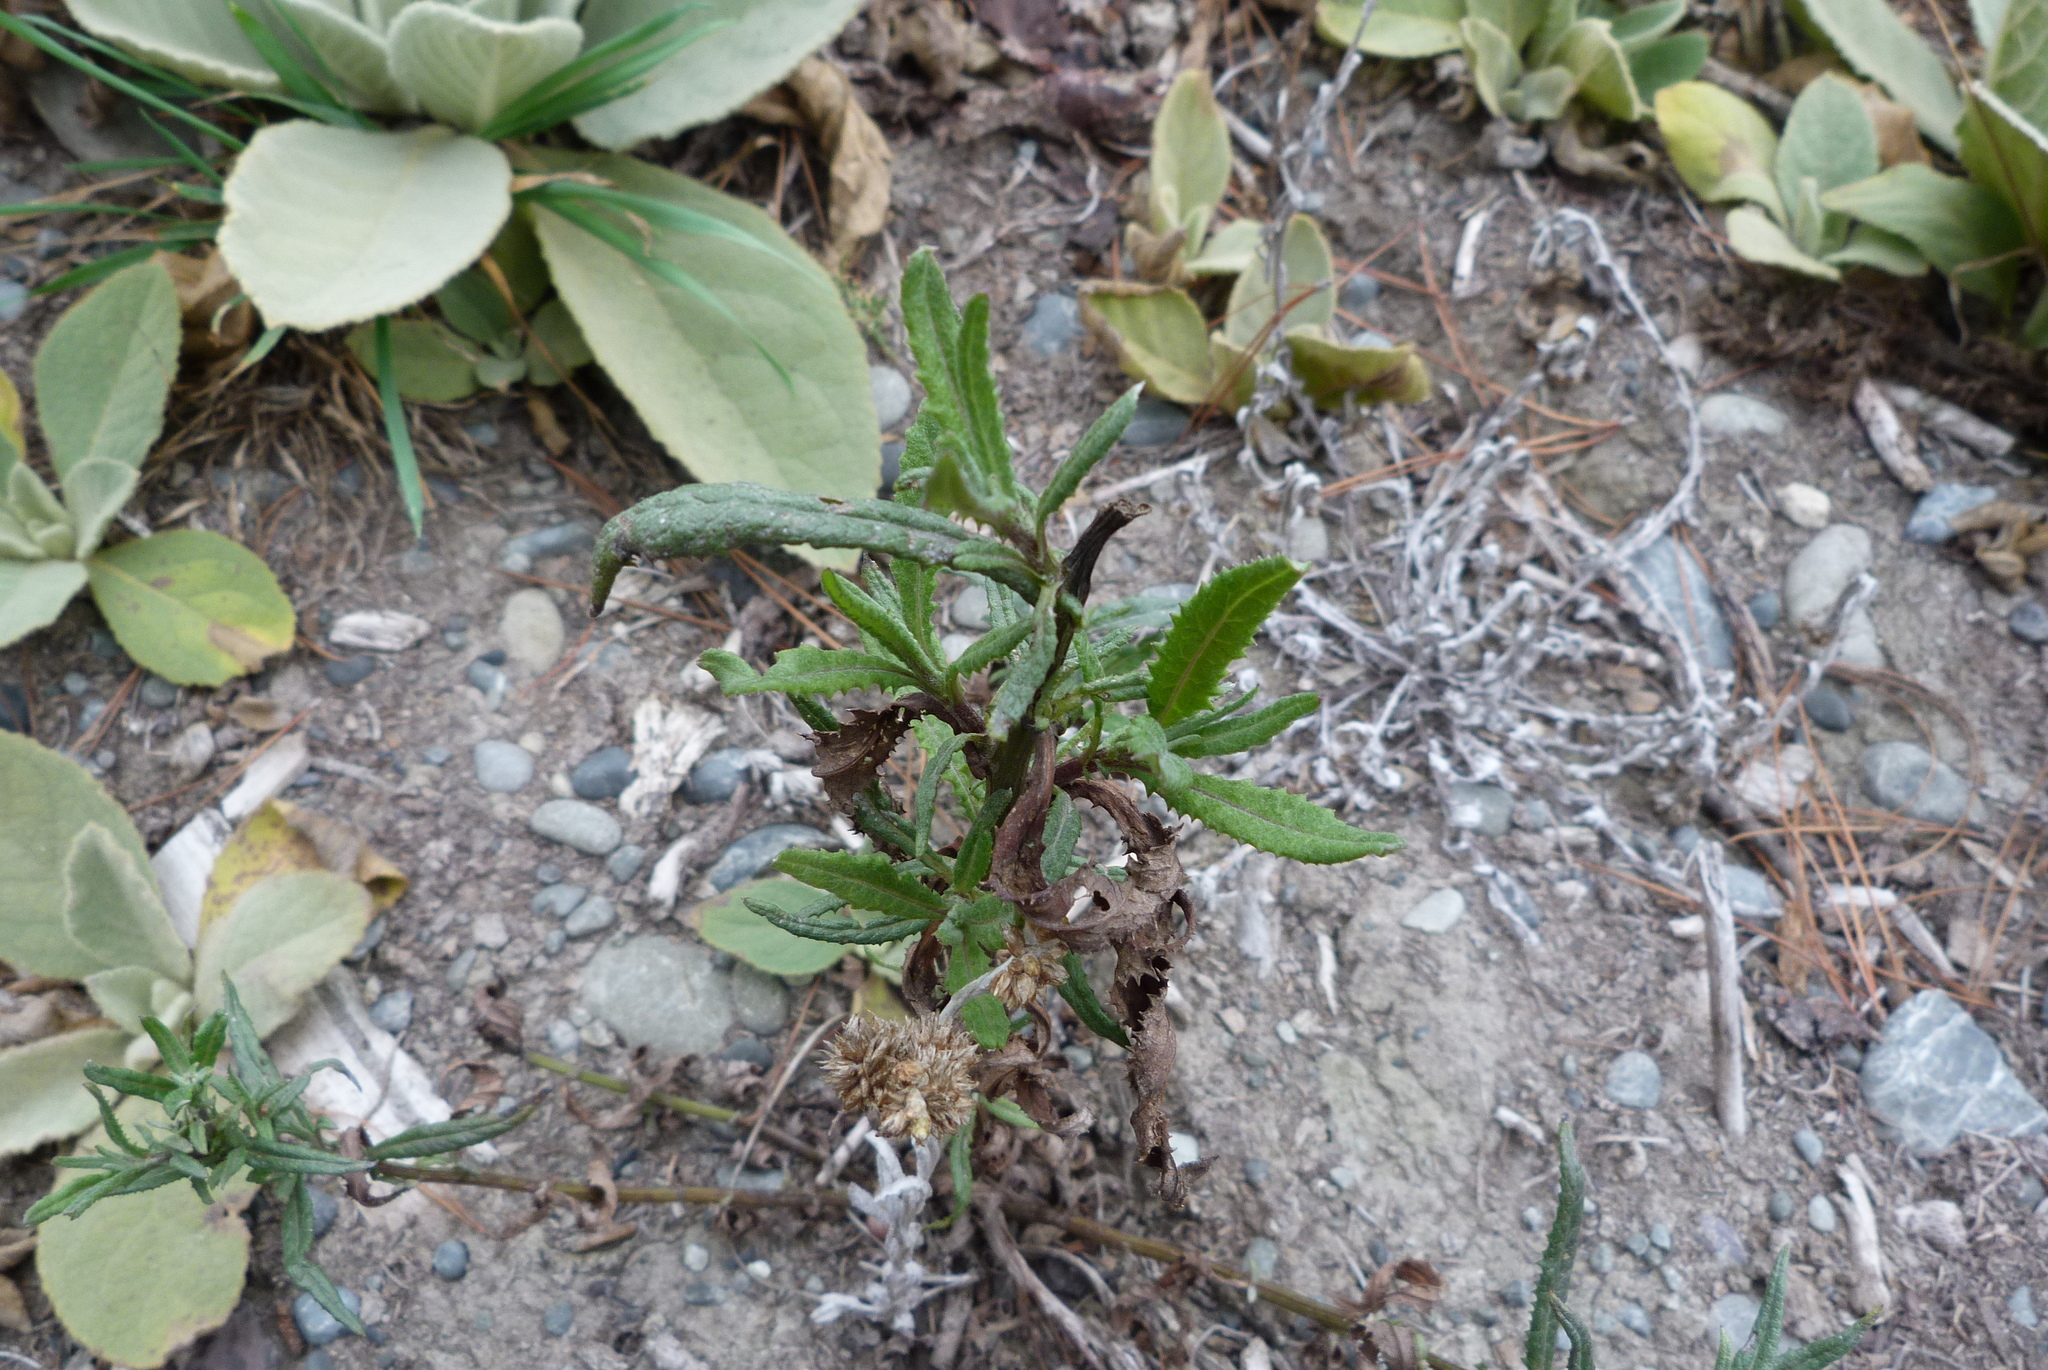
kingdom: Plantae
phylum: Tracheophyta
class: Magnoliopsida
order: Asterales
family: Asteraceae
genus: Senecio
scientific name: Senecio minimus
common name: Toothed fireweed
